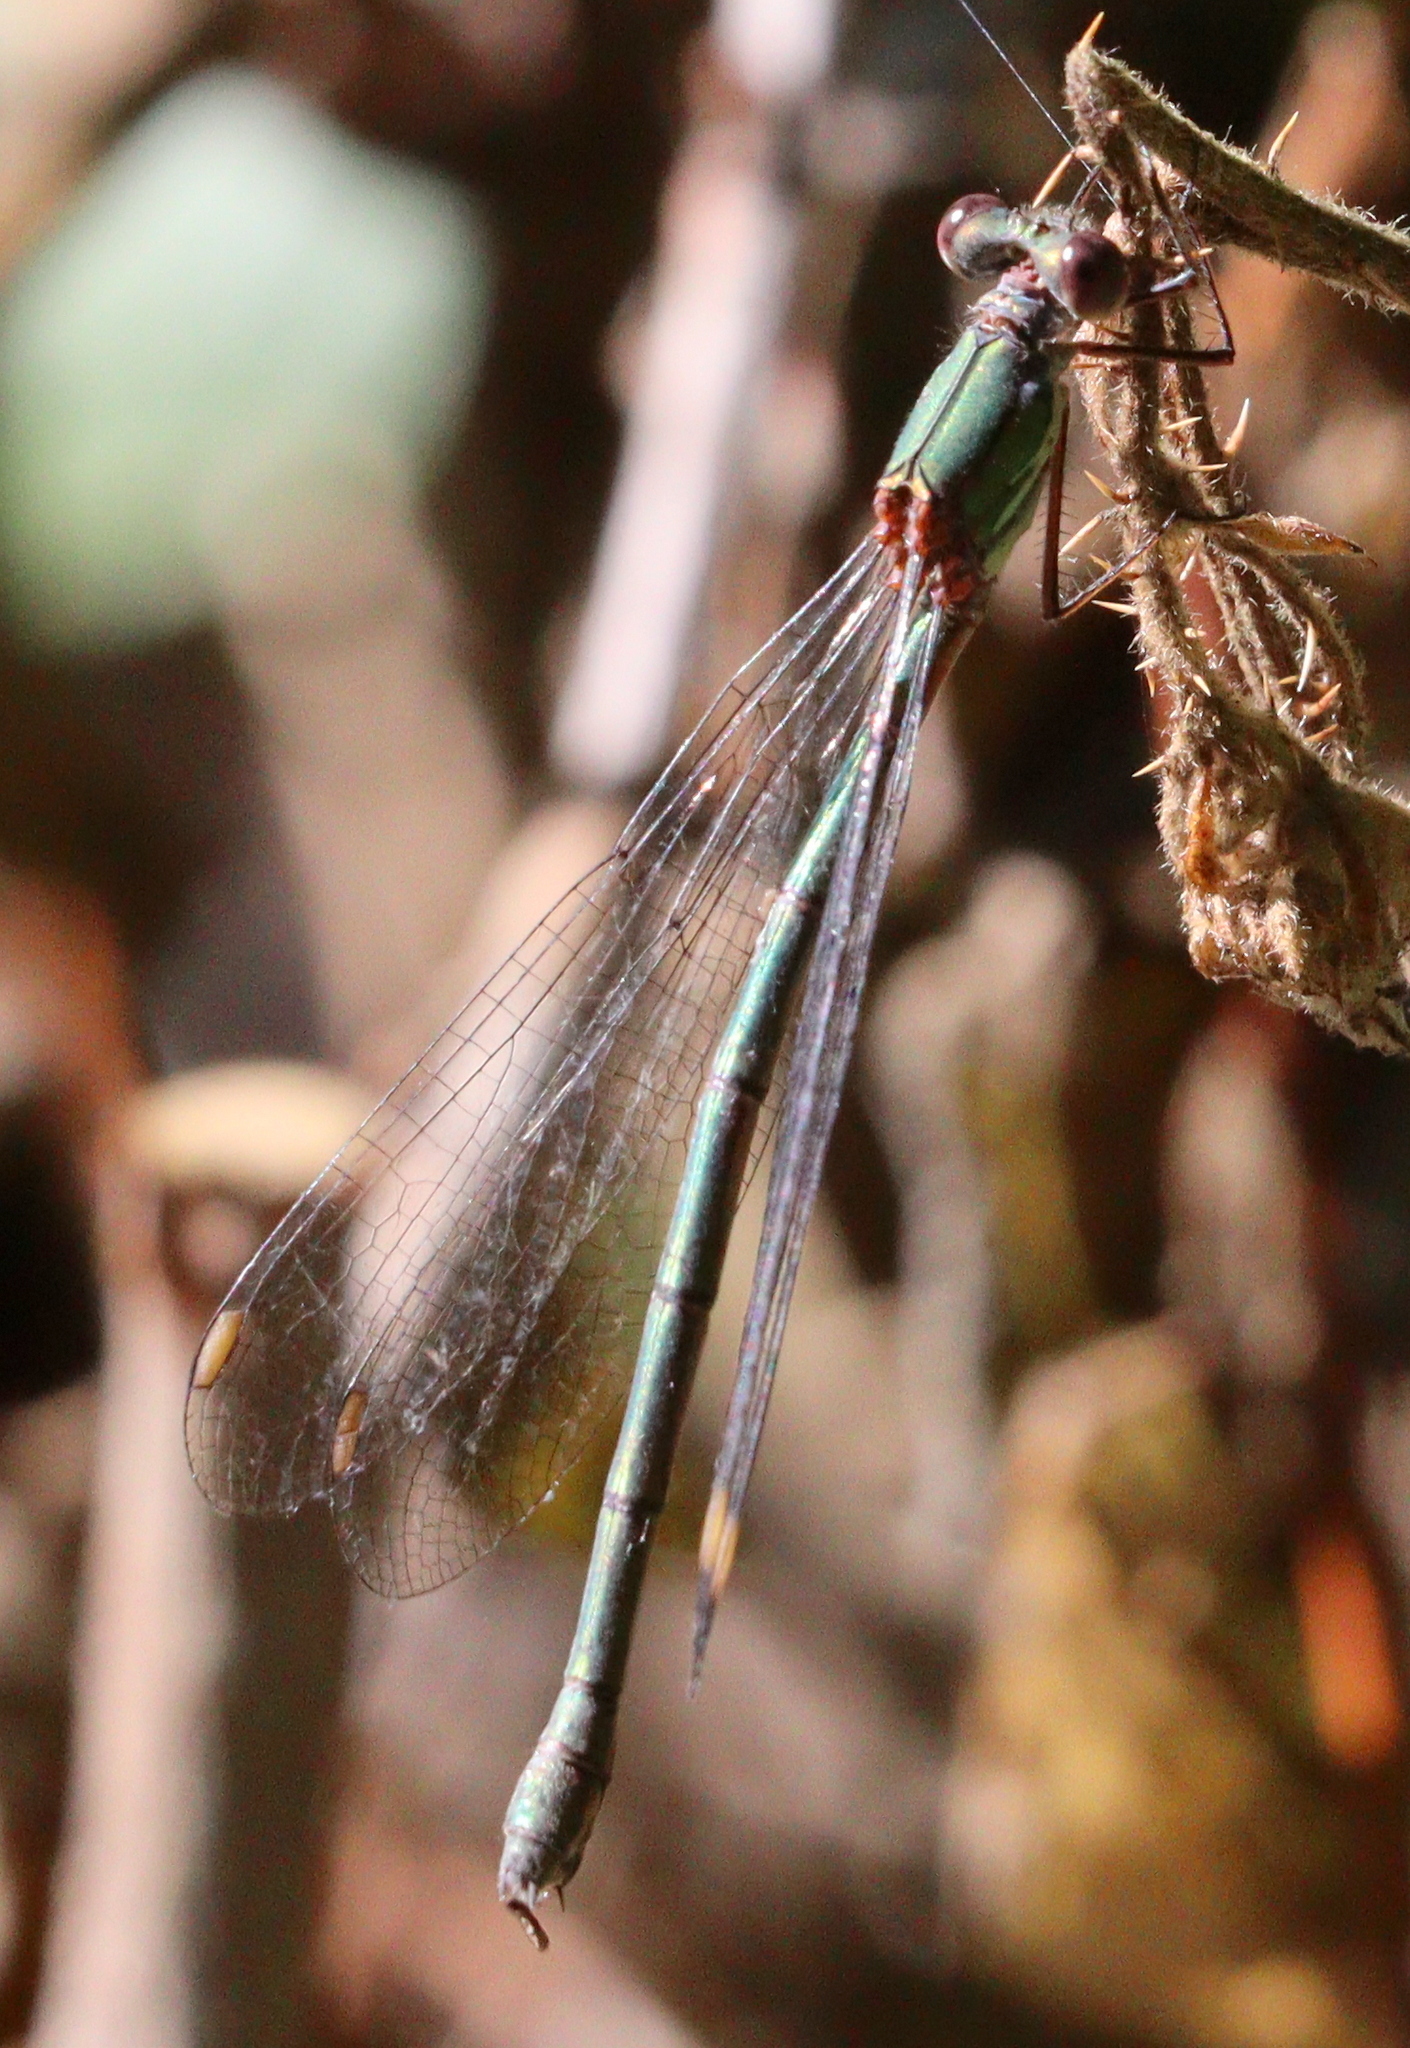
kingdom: Animalia
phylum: Arthropoda
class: Insecta
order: Odonata
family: Lestidae
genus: Chalcolestes
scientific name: Chalcolestes viridis
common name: Green emerald damselfly
